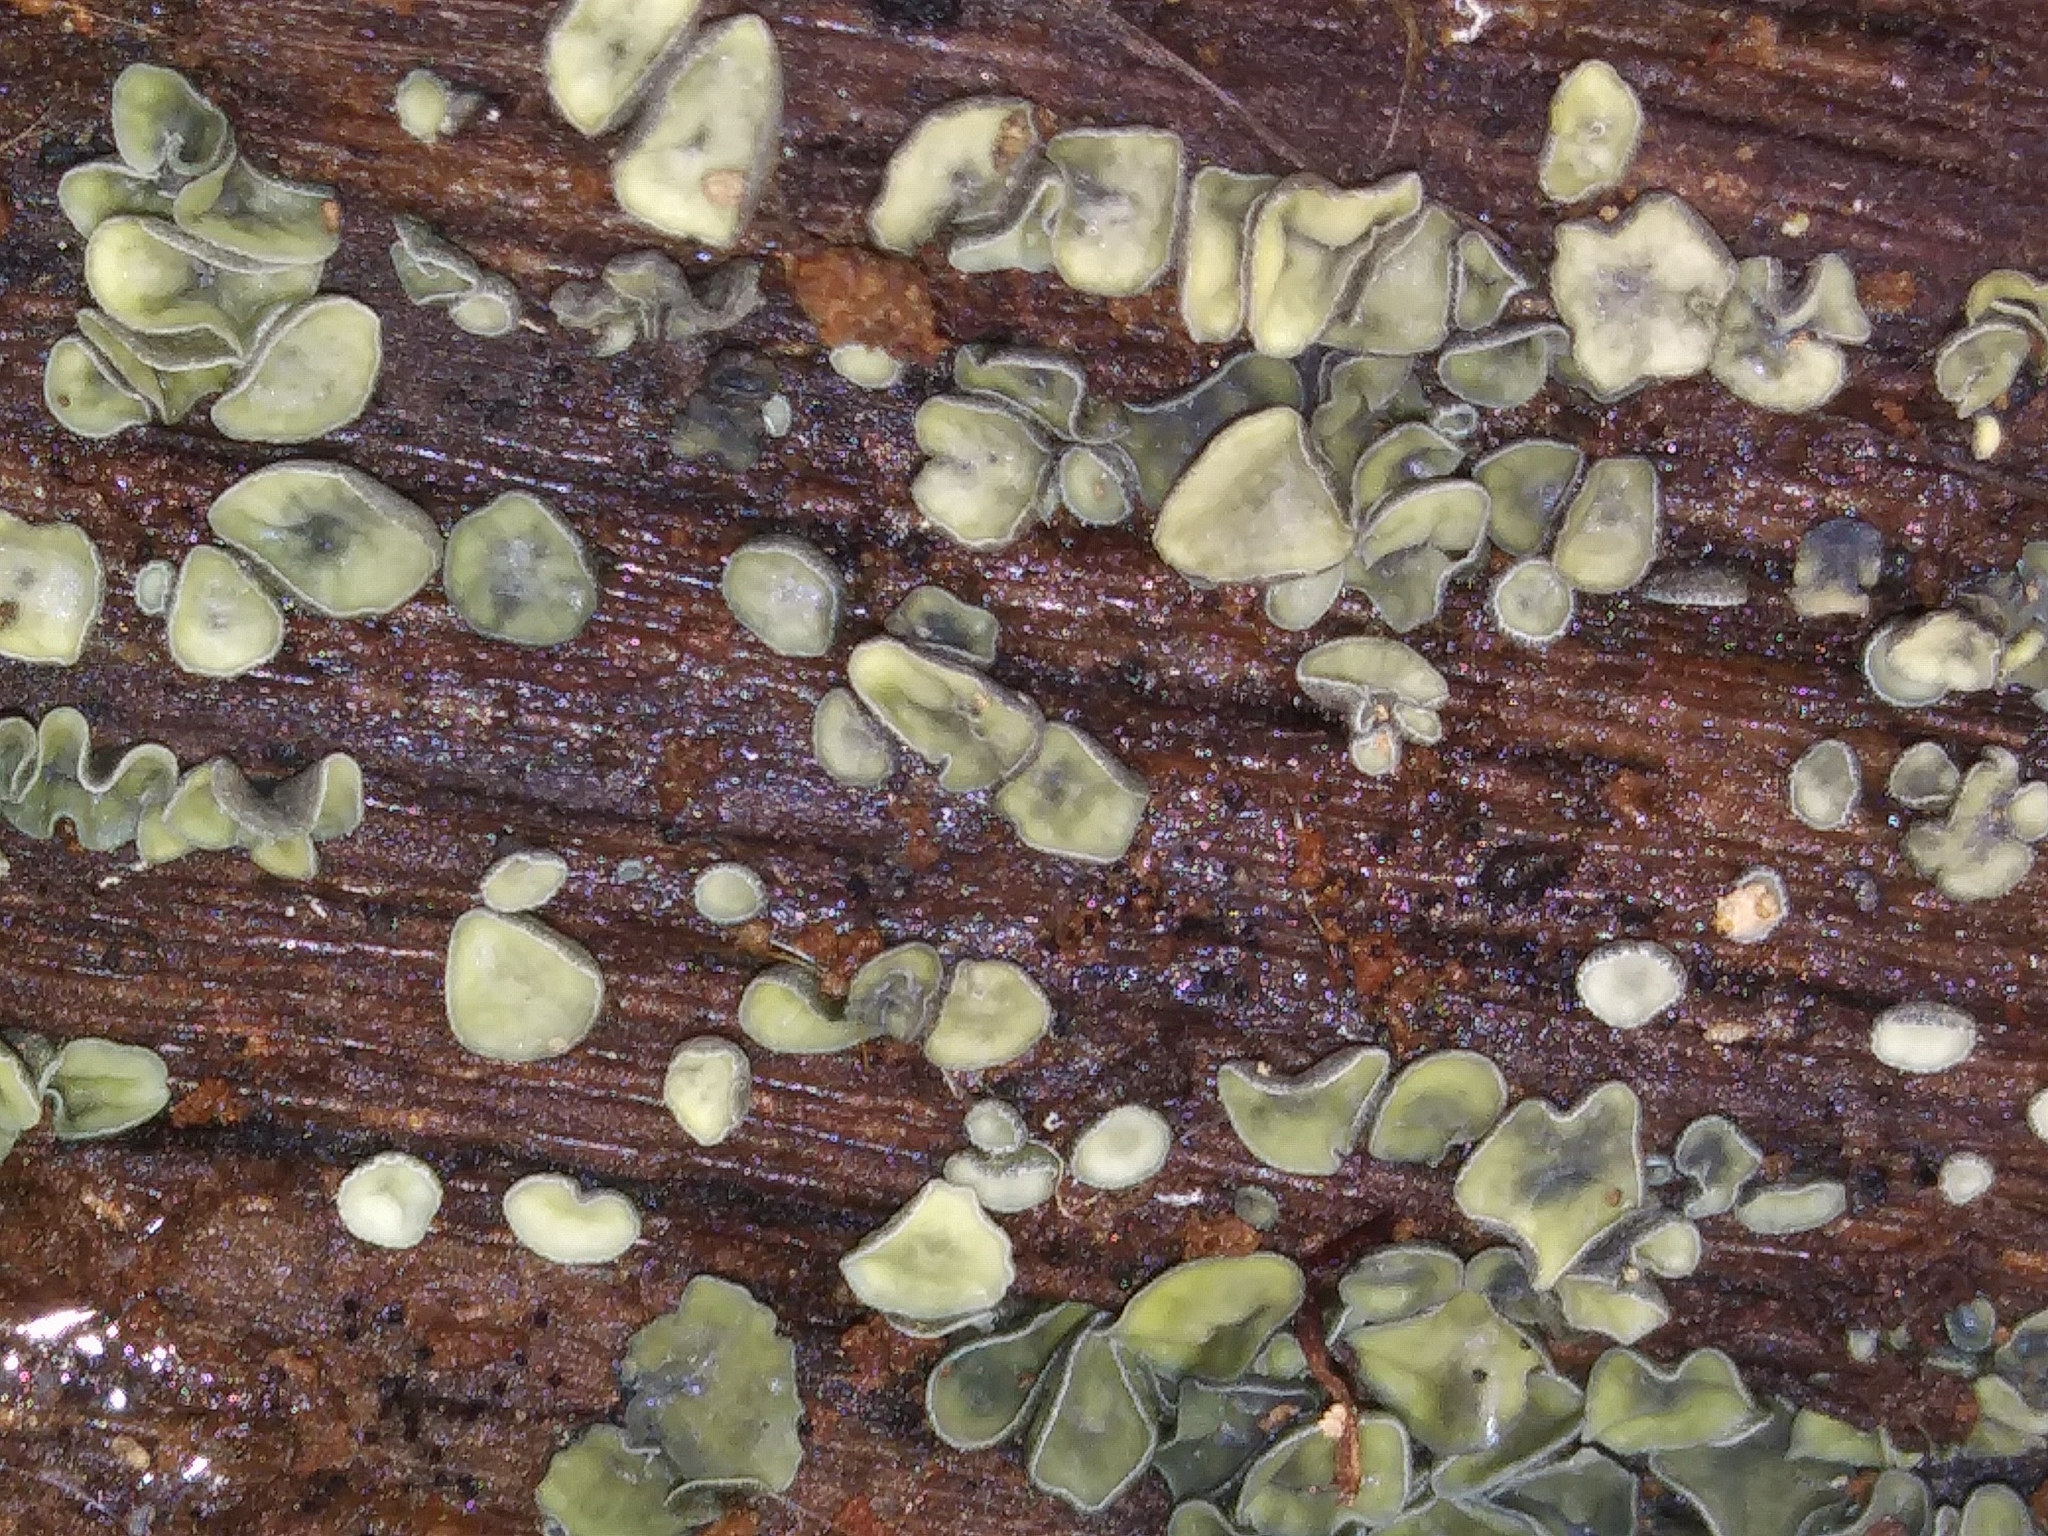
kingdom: Fungi
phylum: Ascomycota
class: Leotiomycetes
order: Helotiales
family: Chlorospleniaceae
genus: Chlorosplenium
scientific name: Chlorosplenium chlora
